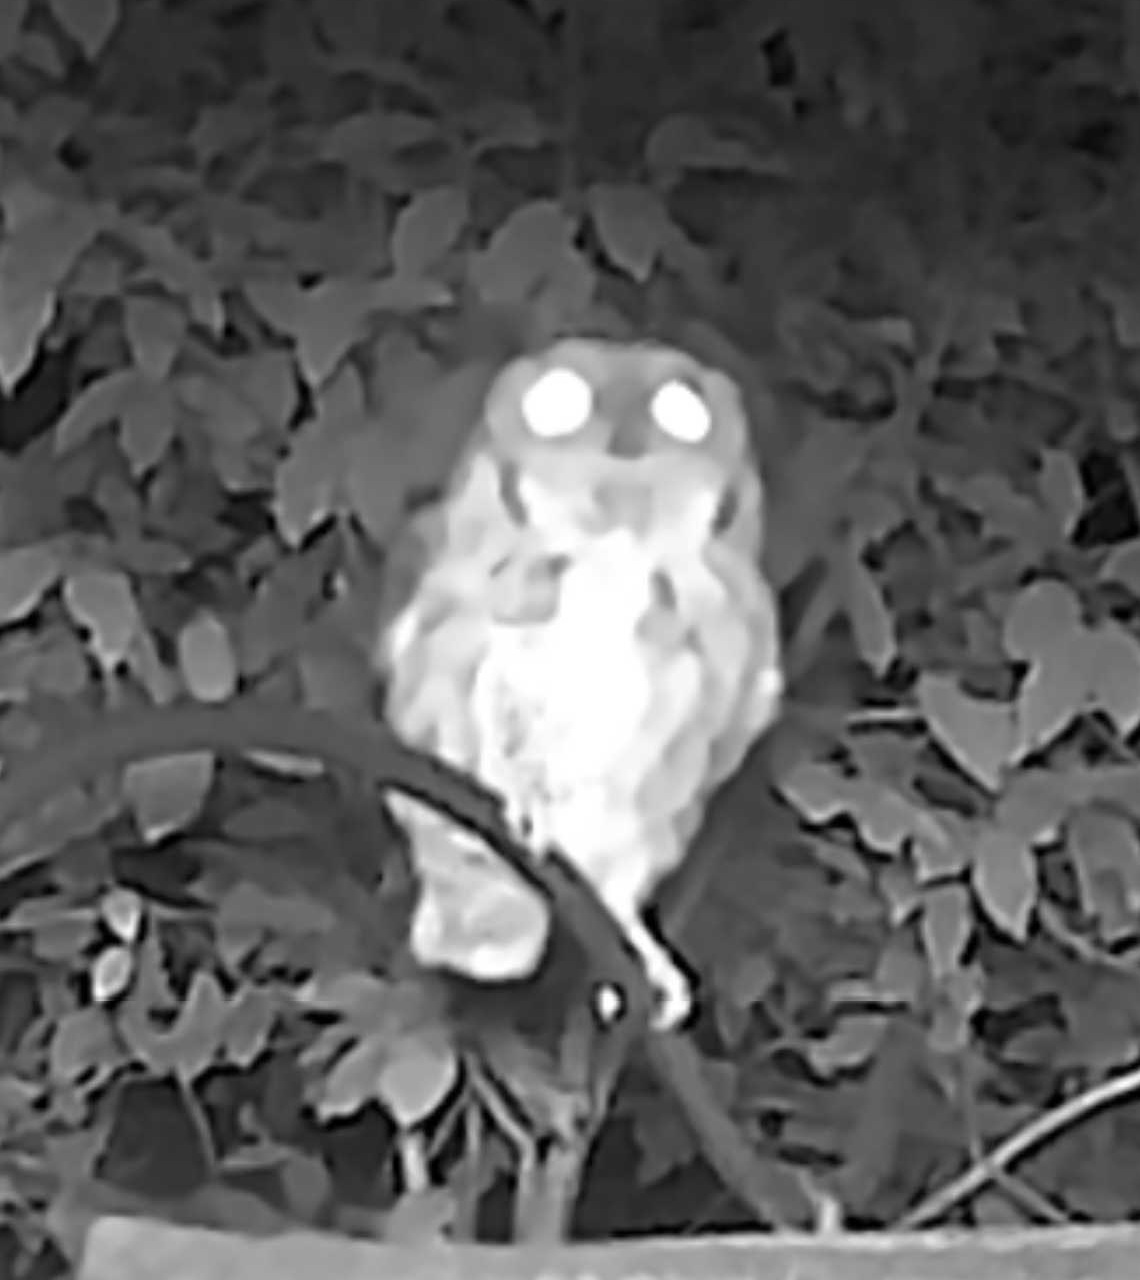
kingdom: Animalia
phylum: Chordata
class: Aves
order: Strigiformes
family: Strigidae
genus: Megascops
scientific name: Megascops asio
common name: Eastern screech-owl
